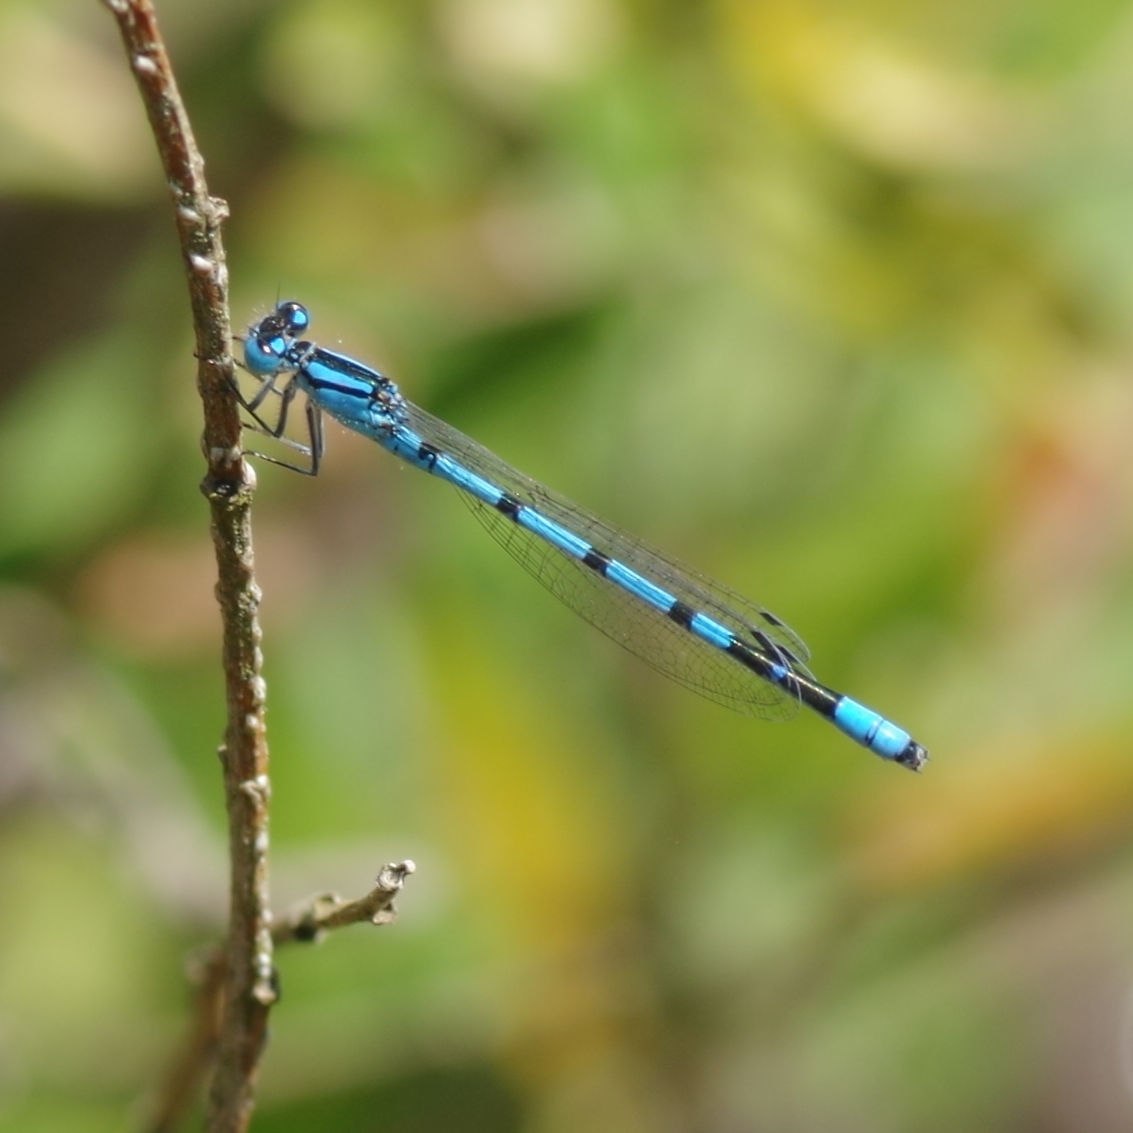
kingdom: Animalia
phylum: Arthropoda
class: Insecta
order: Odonata
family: Coenagrionidae
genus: Enallagma
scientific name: Enallagma cyathigerum
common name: Common blue damselfly
